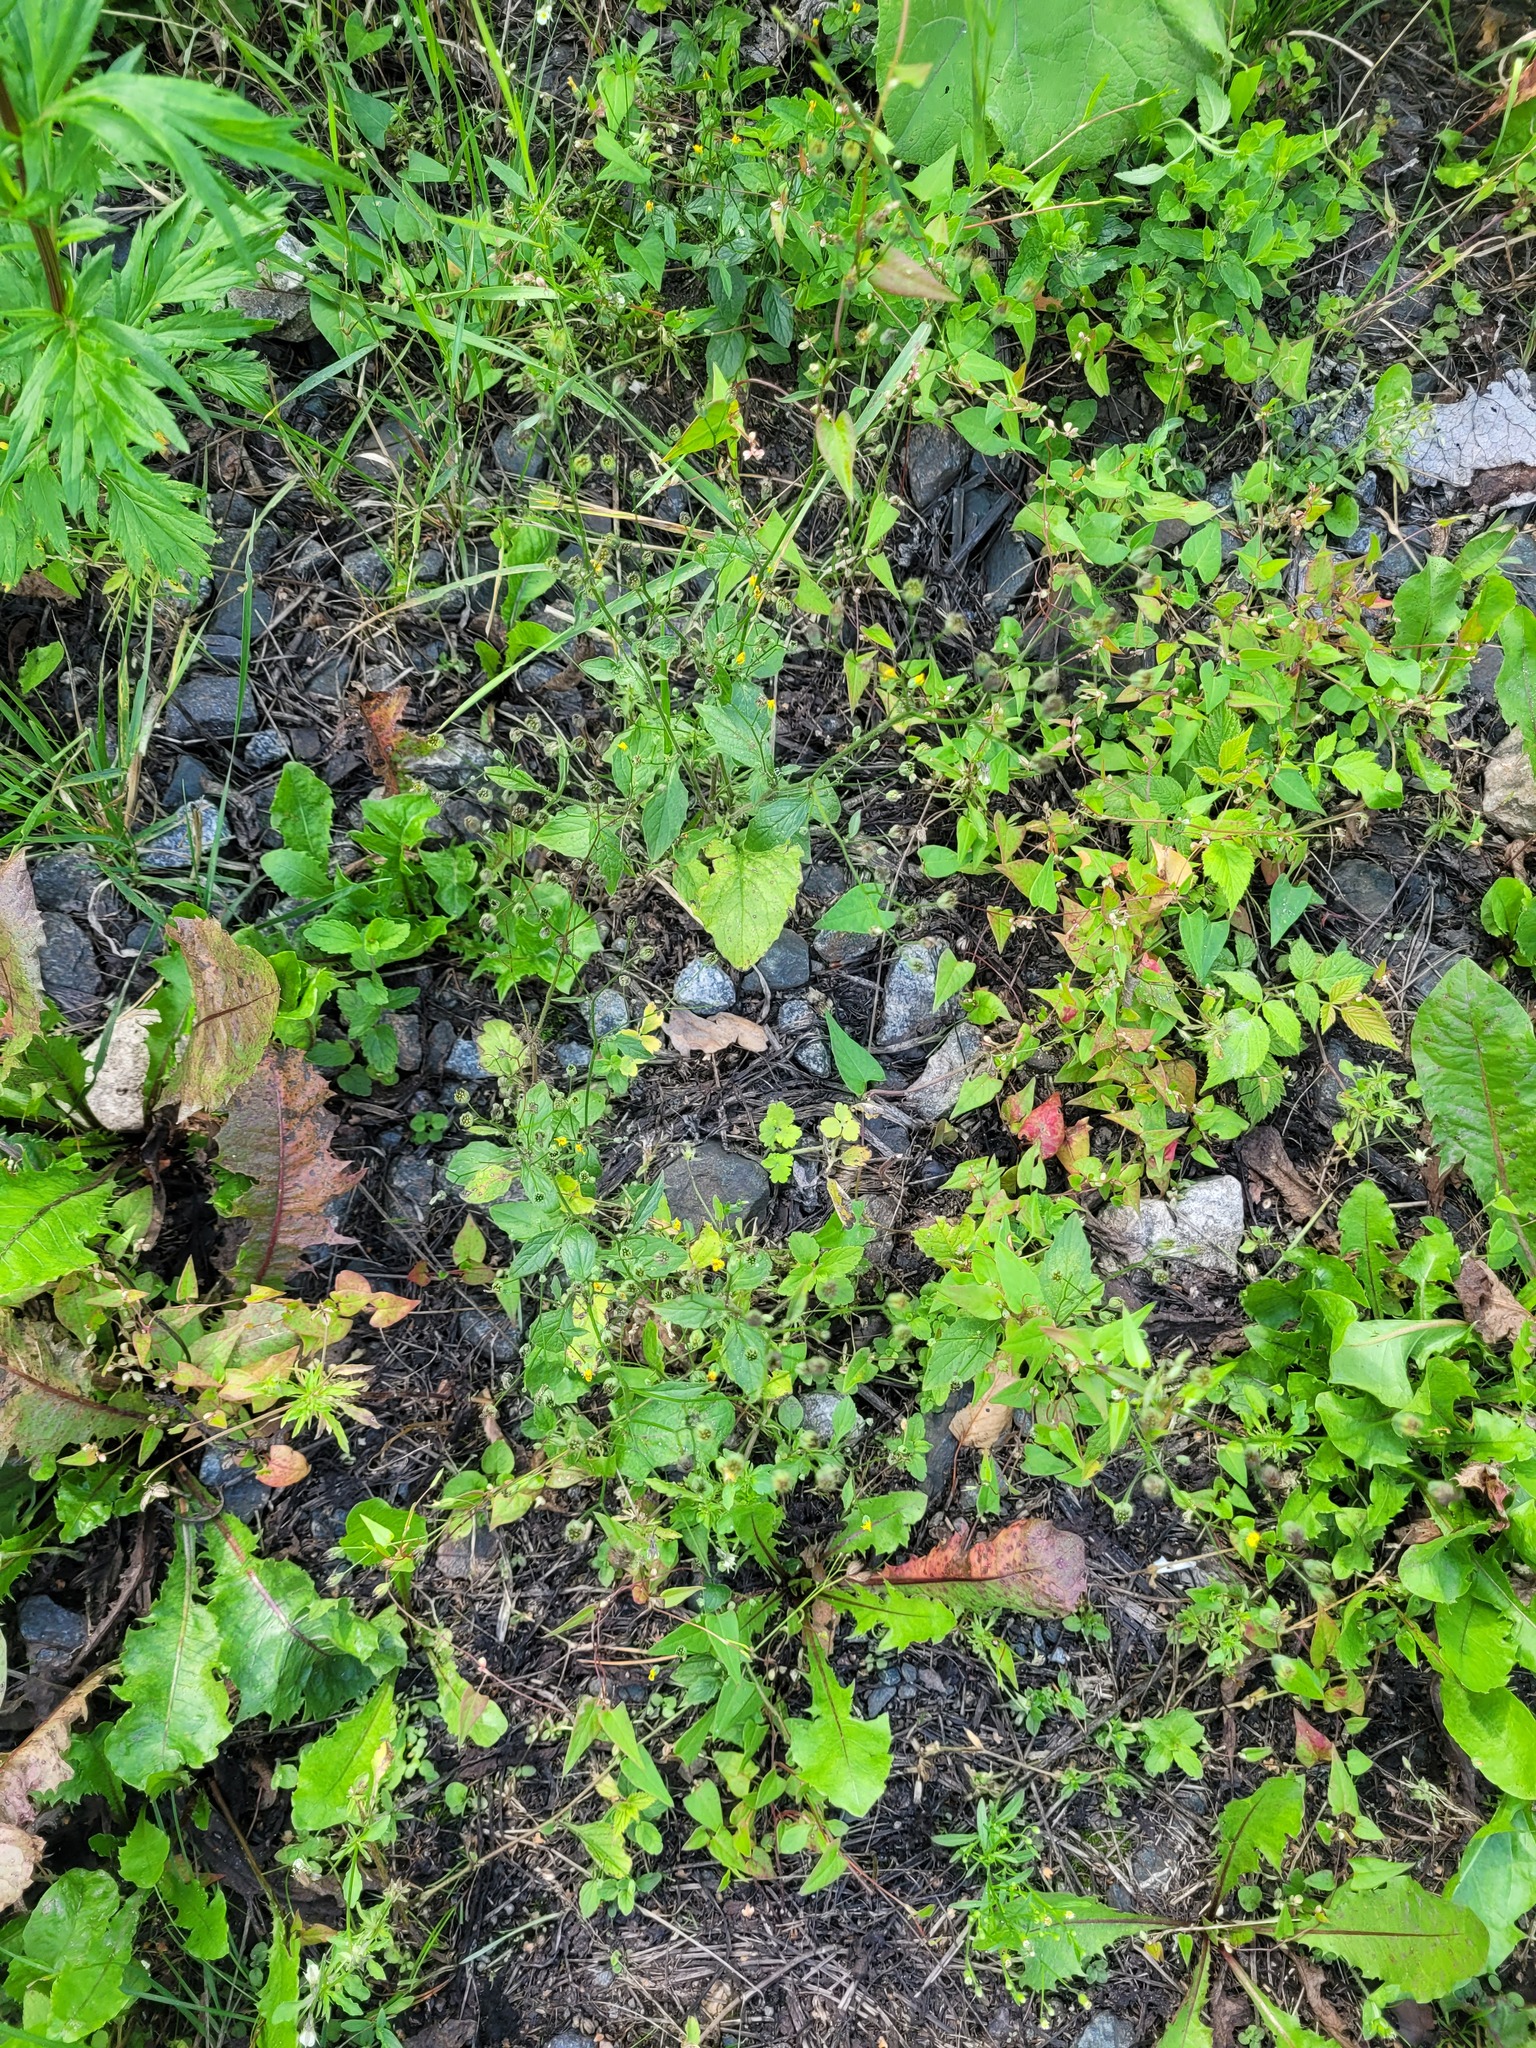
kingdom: Plantae
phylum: Tracheophyta
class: Magnoliopsida
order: Asterales
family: Asteraceae
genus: Lapsana
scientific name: Lapsana communis
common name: Nipplewort
